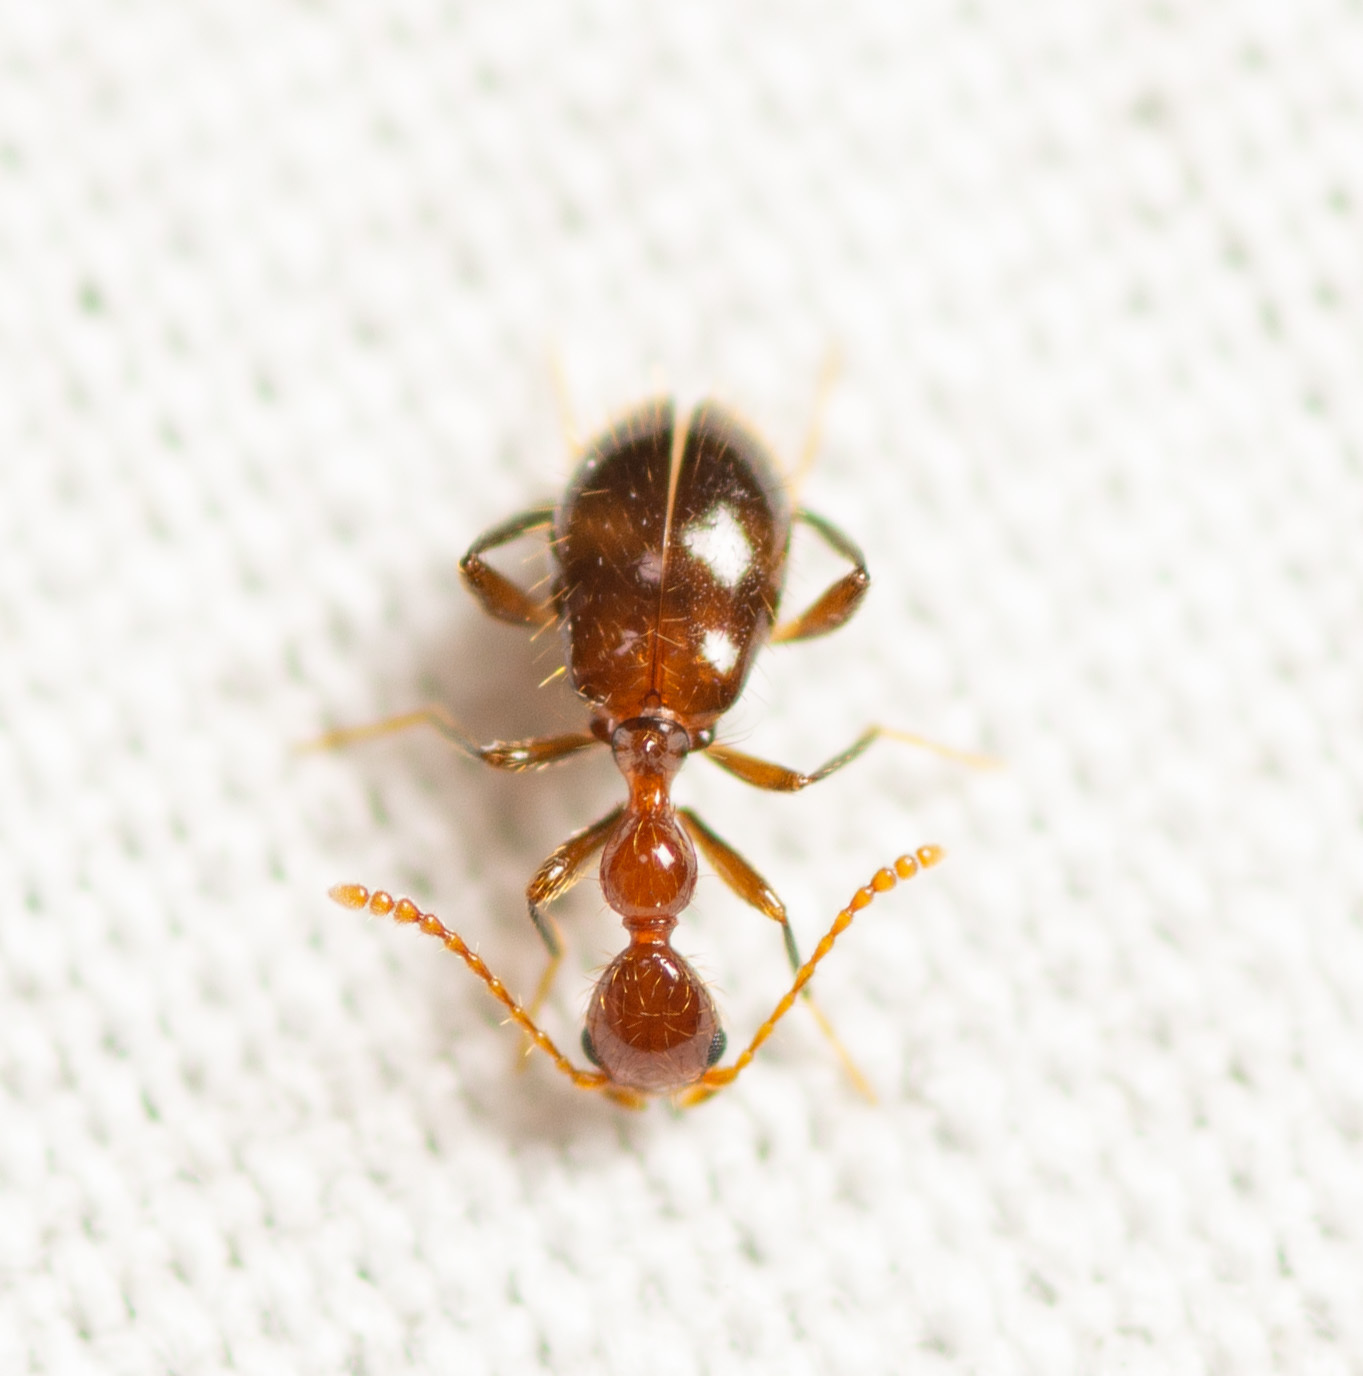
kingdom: Animalia
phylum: Arthropoda
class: Insecta
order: Coleoptera
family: Anthicidae
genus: Acanthinus
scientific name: Acanthinus
